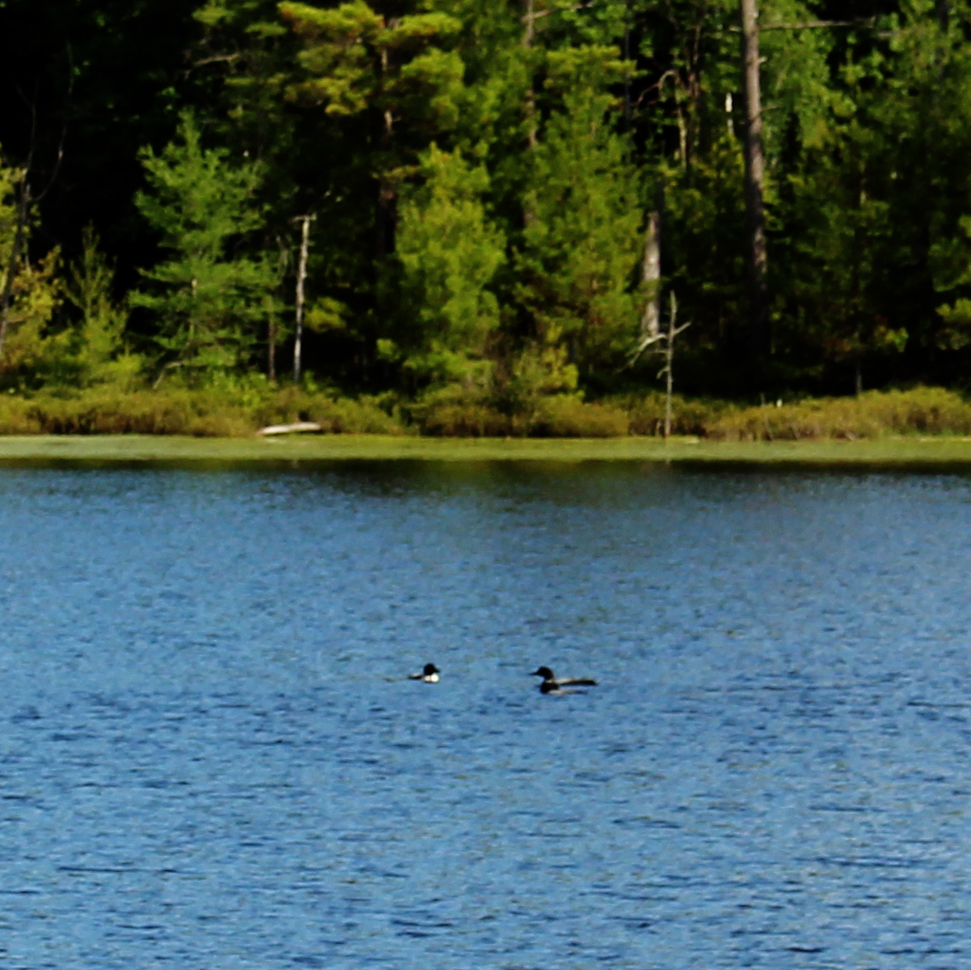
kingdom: Animalia
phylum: Chordata
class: Aves
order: Gaviiformes
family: Gaviidae
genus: Gavia
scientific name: Gavia immer
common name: Common loon
